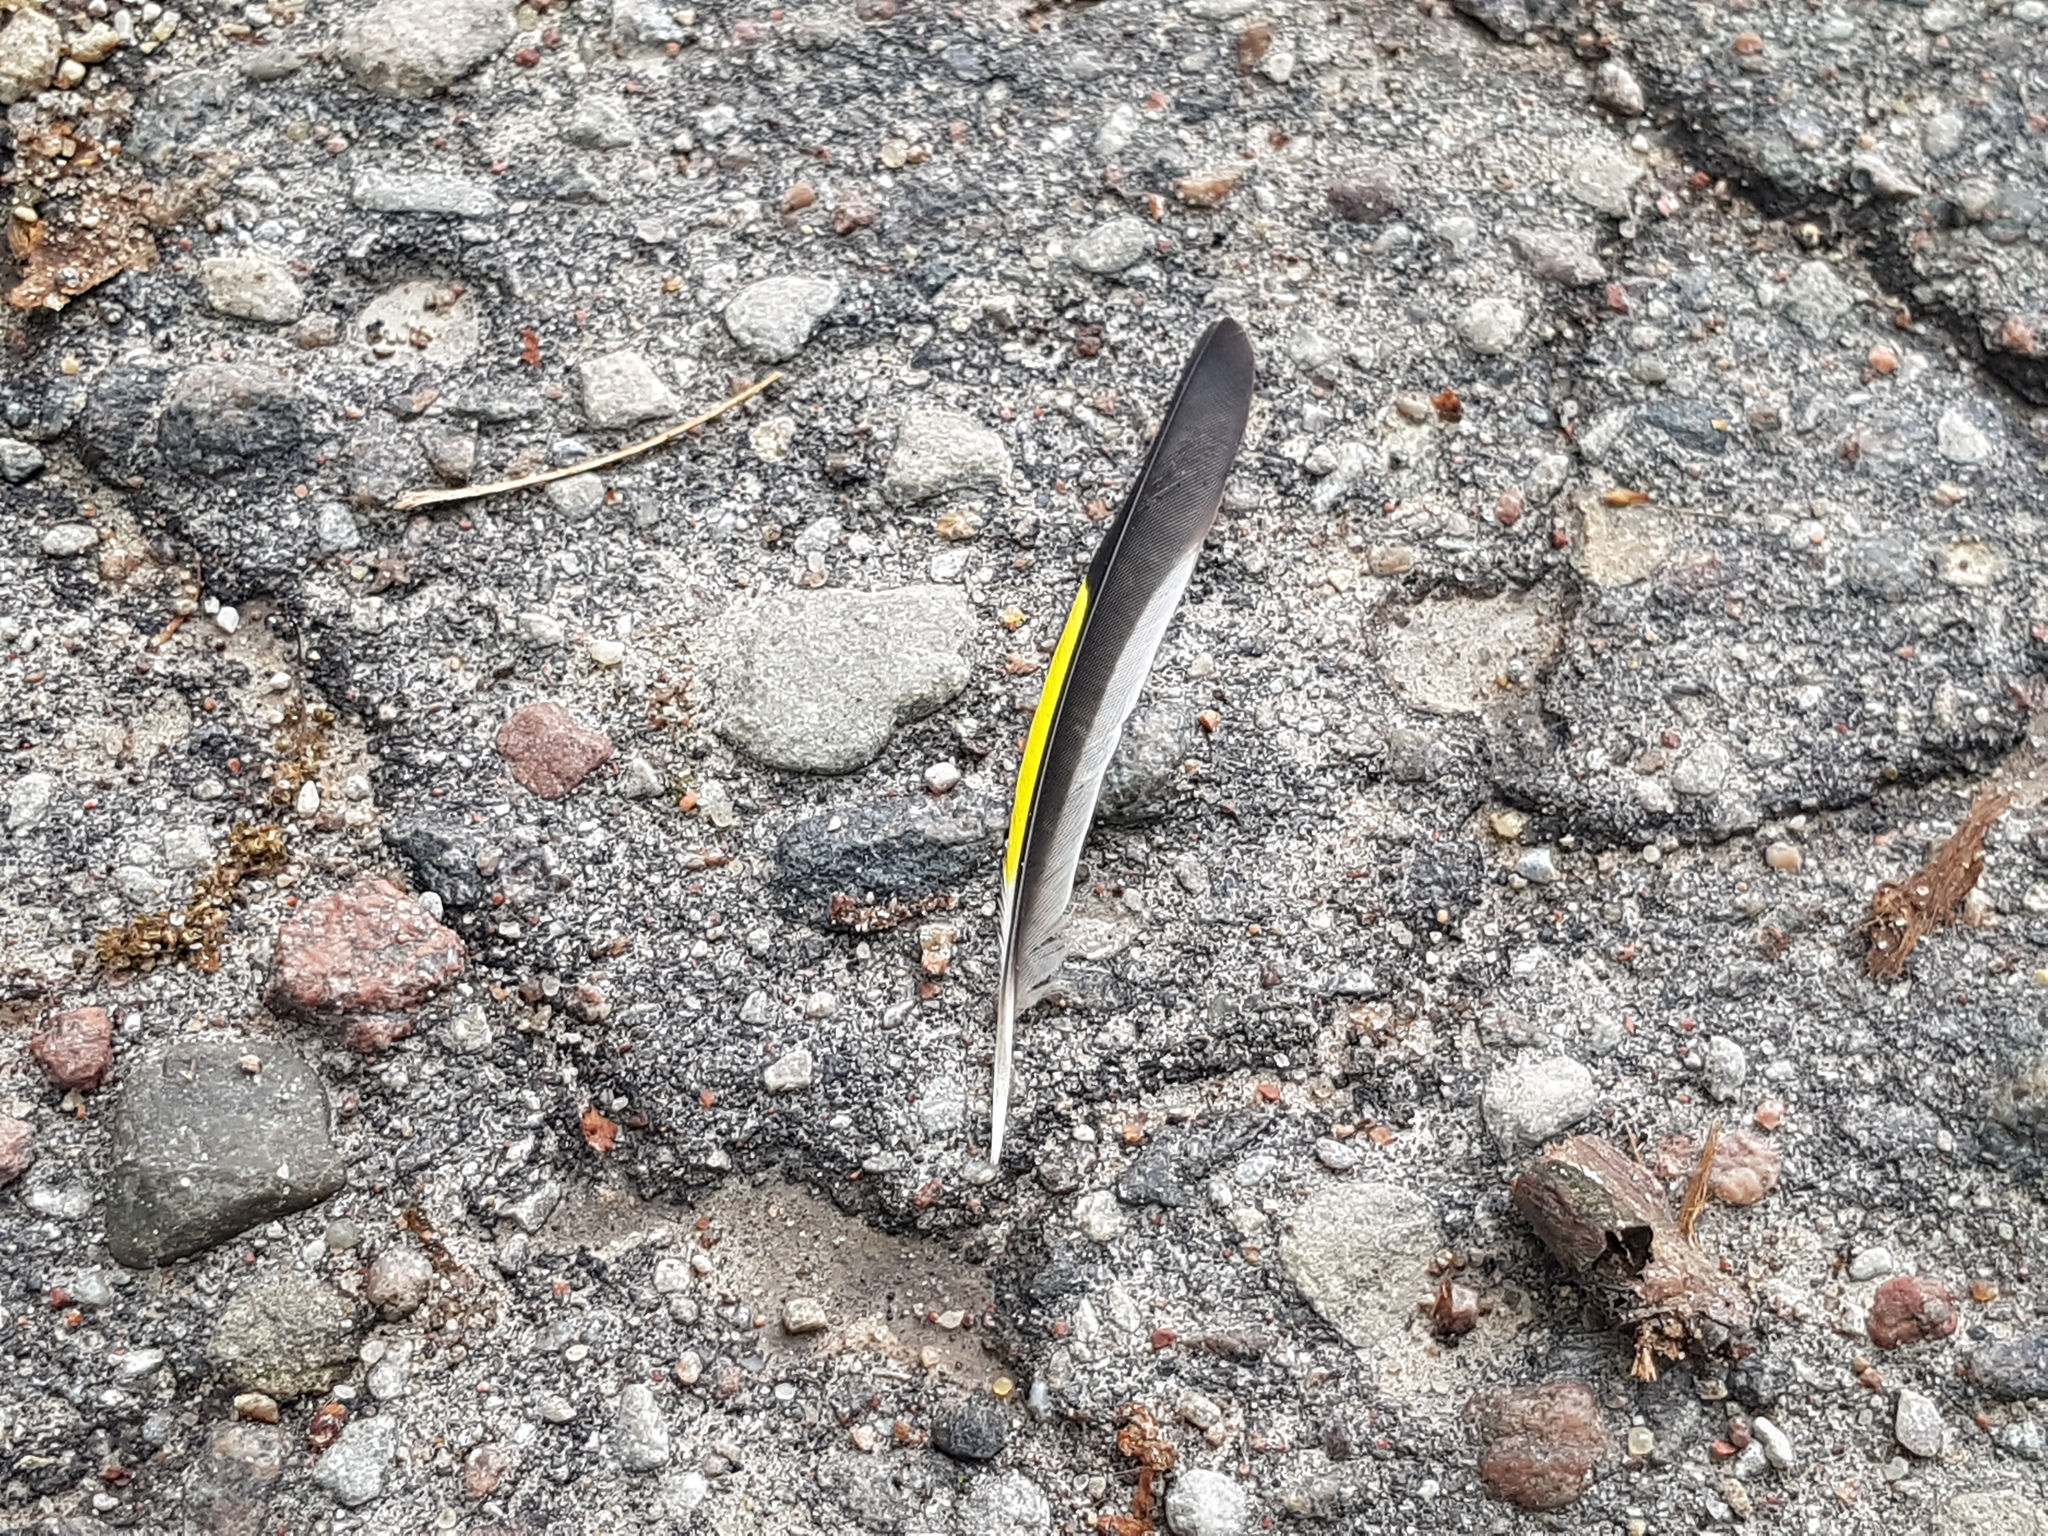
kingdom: Animalia
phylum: Chordata
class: Aves
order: Passeriformes
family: Fringillidae
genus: Carduelis
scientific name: Carduelis carduelis
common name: European goldfinch
